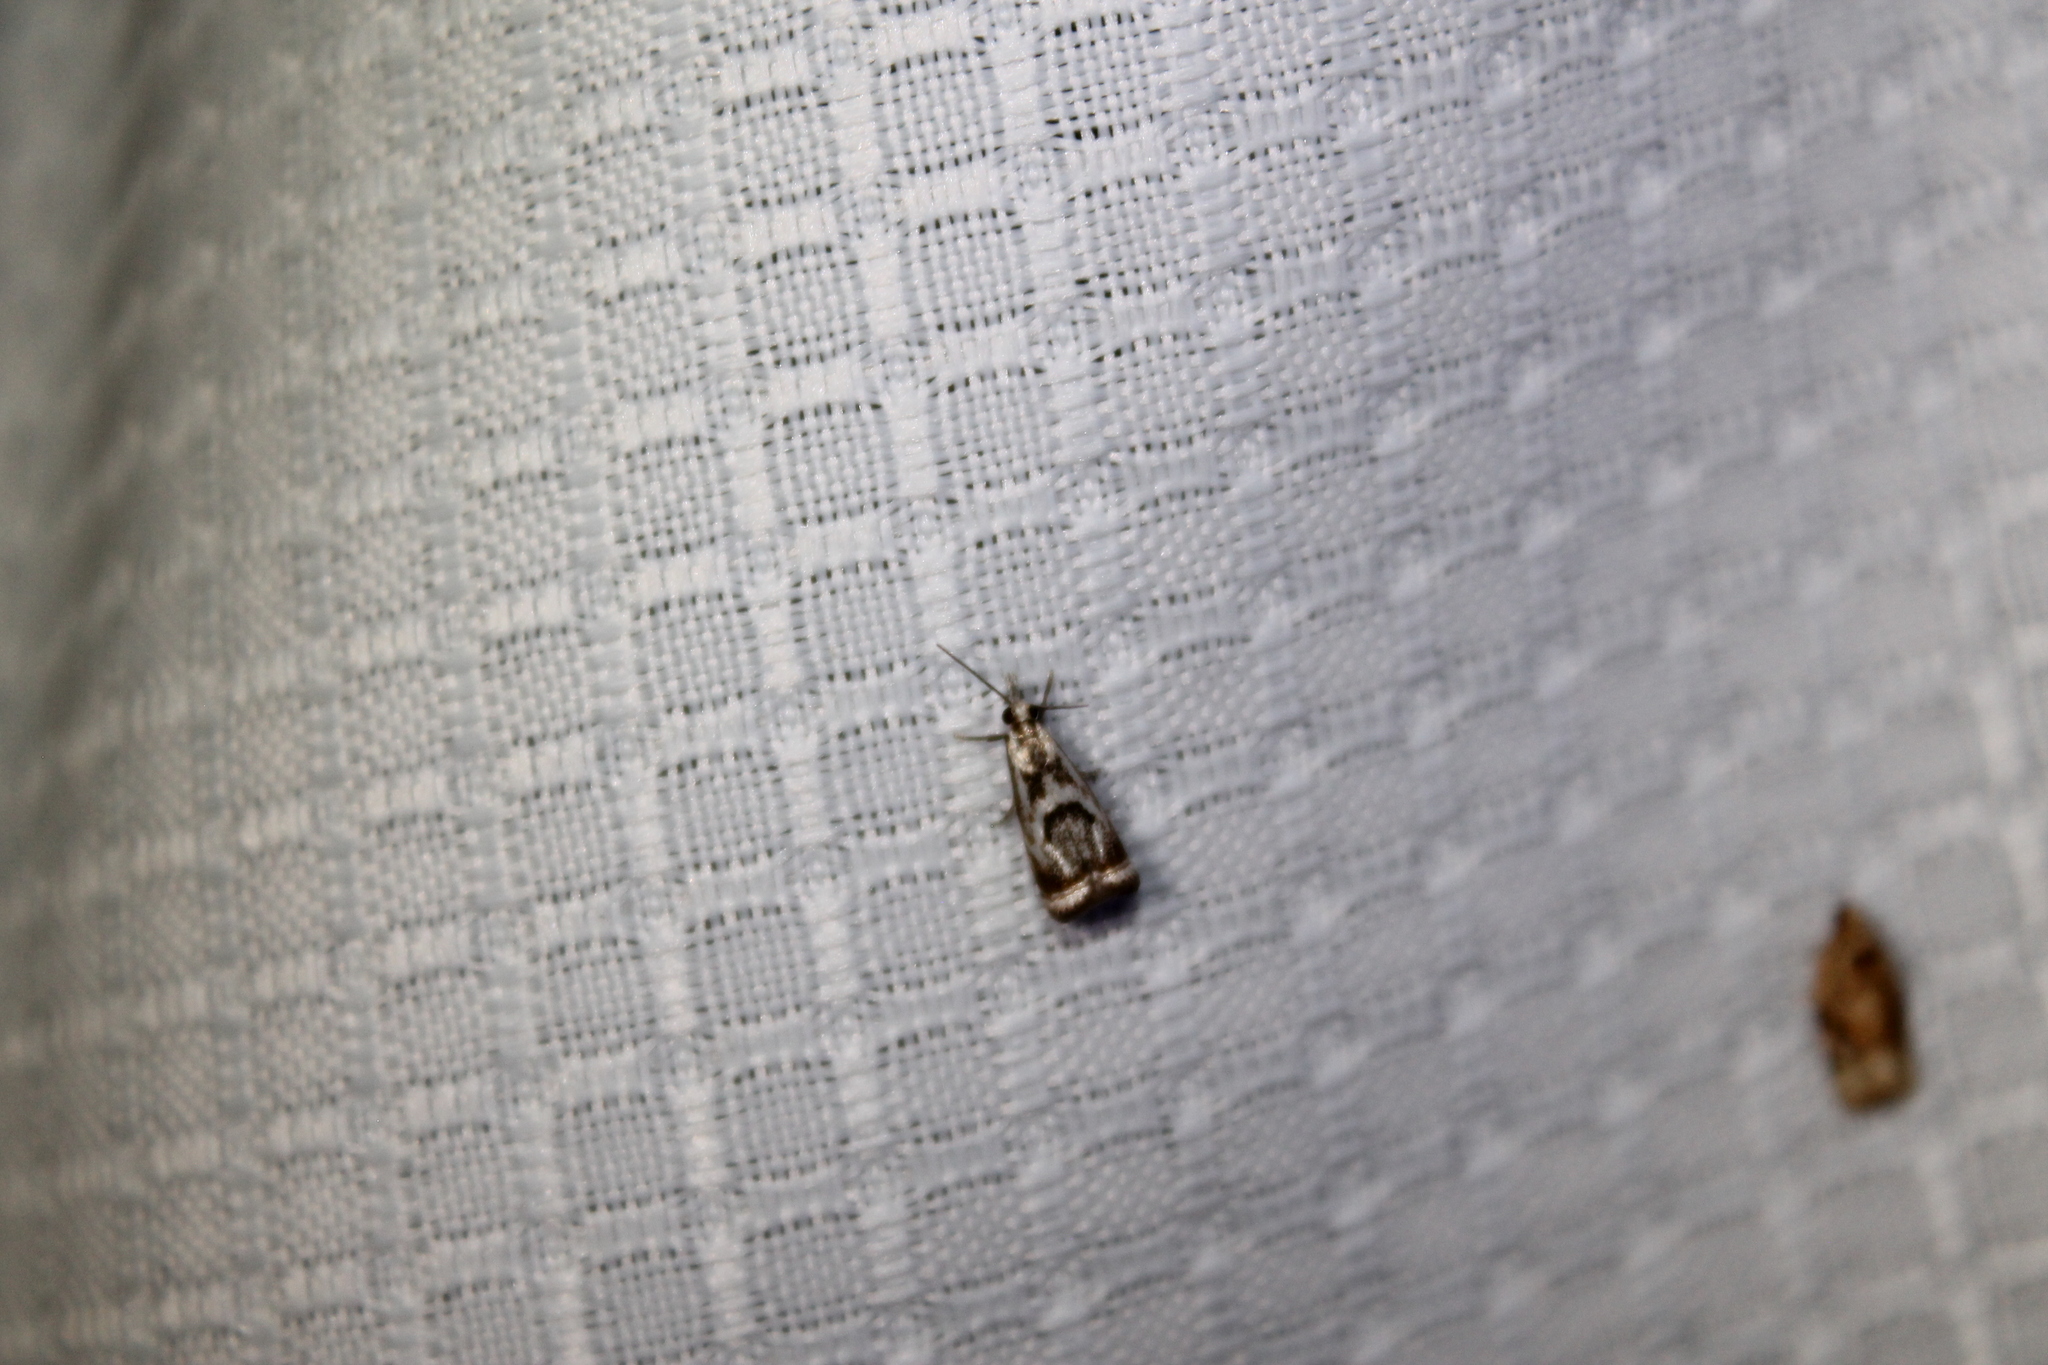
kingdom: Animalia
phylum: Arthropoda
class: Insecta
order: Lepidoptera
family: Crambidae
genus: Microcrambus
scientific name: Microcrambus elegans
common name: Elegant grass-veneer
